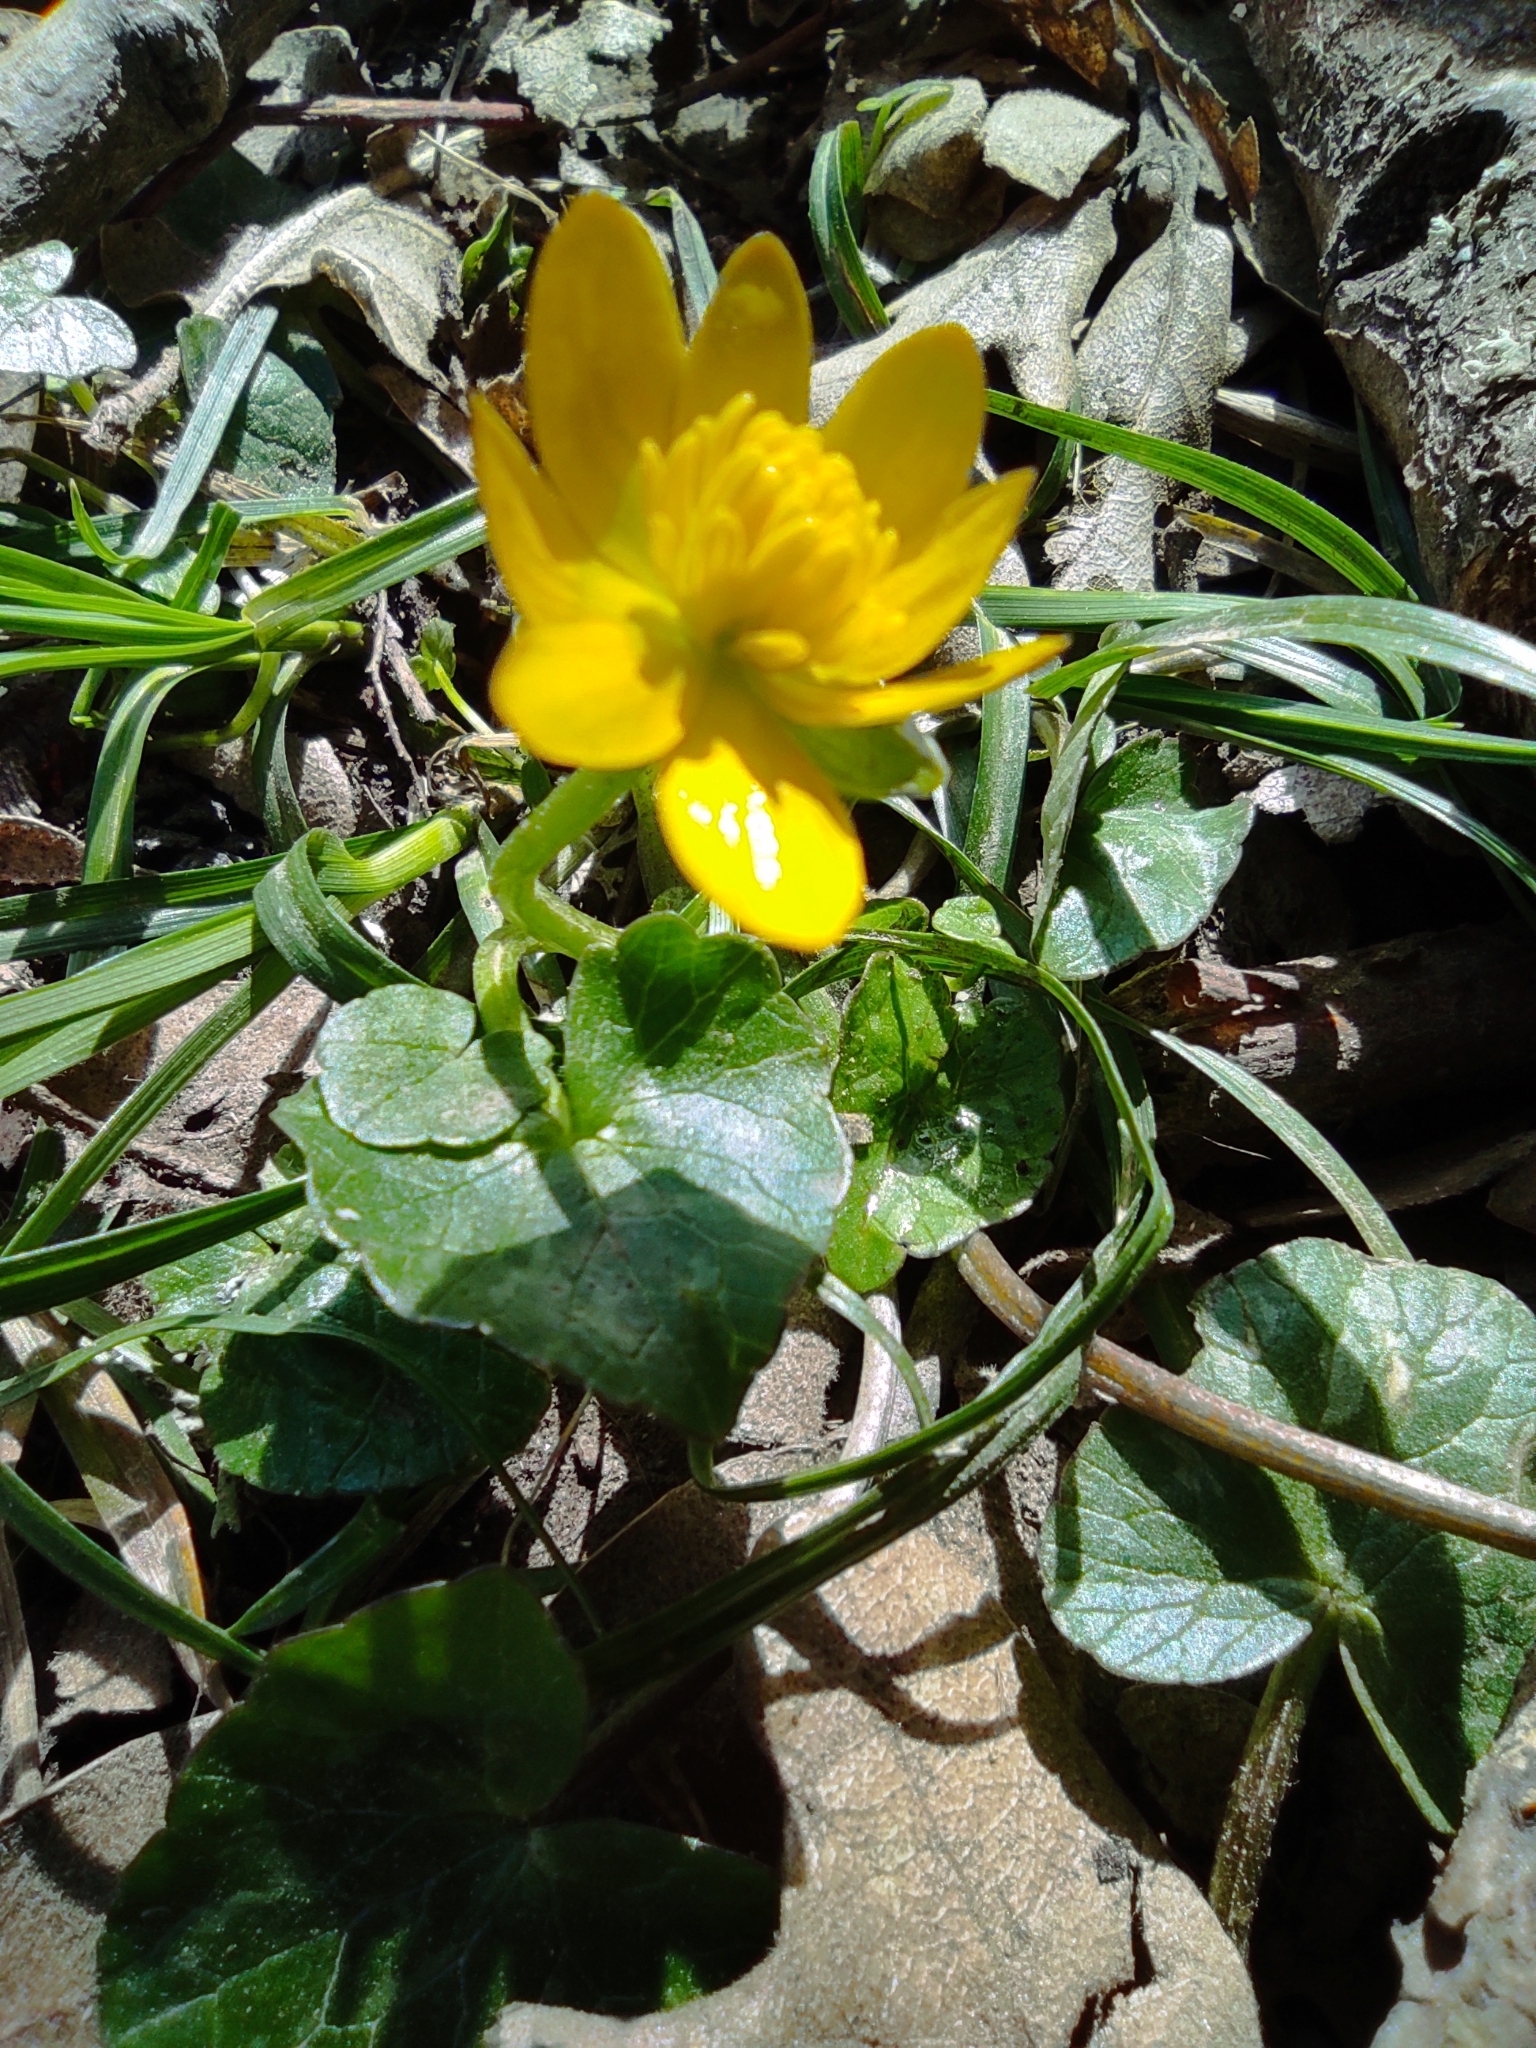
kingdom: Plantae
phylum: Tracheophyta
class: Magnoliopsida
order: Ranunculales
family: Ranunculaceae
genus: Ficaria
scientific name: Ficaria verna
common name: Lesser celandine
